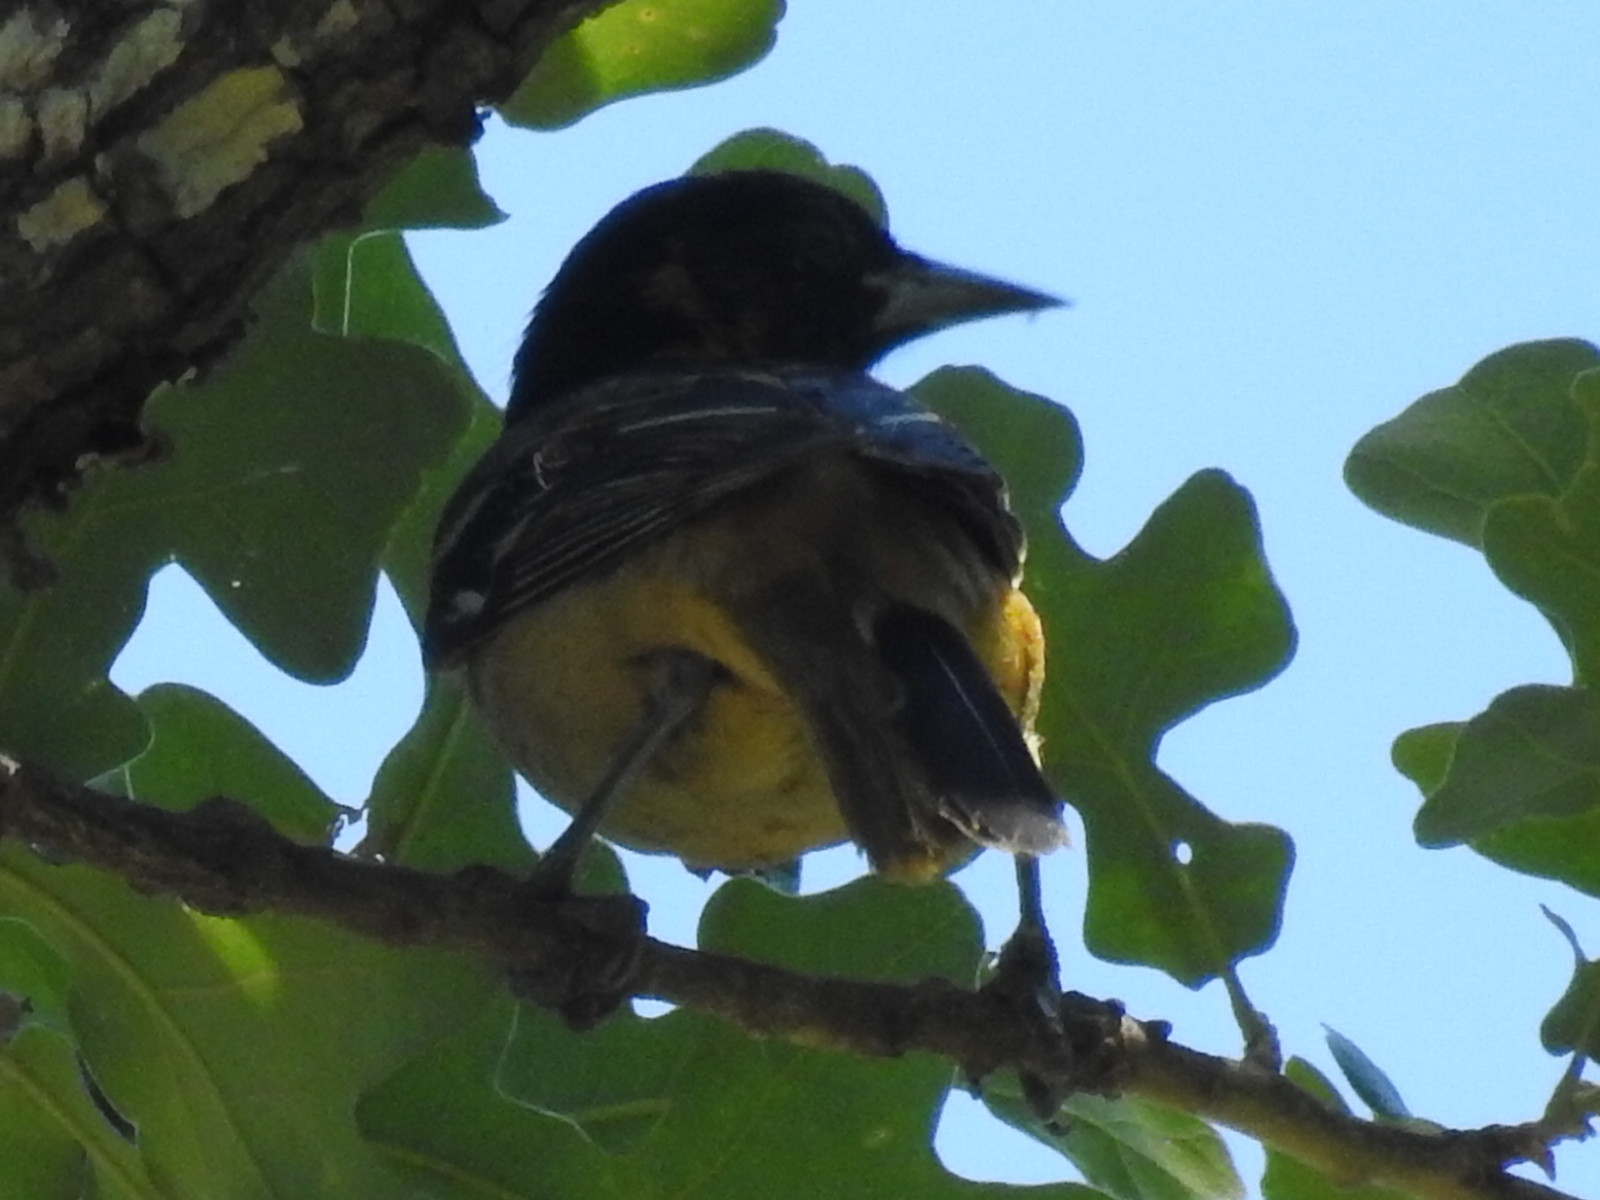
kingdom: Animalia
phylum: Chordata
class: Aves
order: Passeriformes
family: Icteridae
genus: Icterus
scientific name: Icterus galbula
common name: Baltimore oriole
